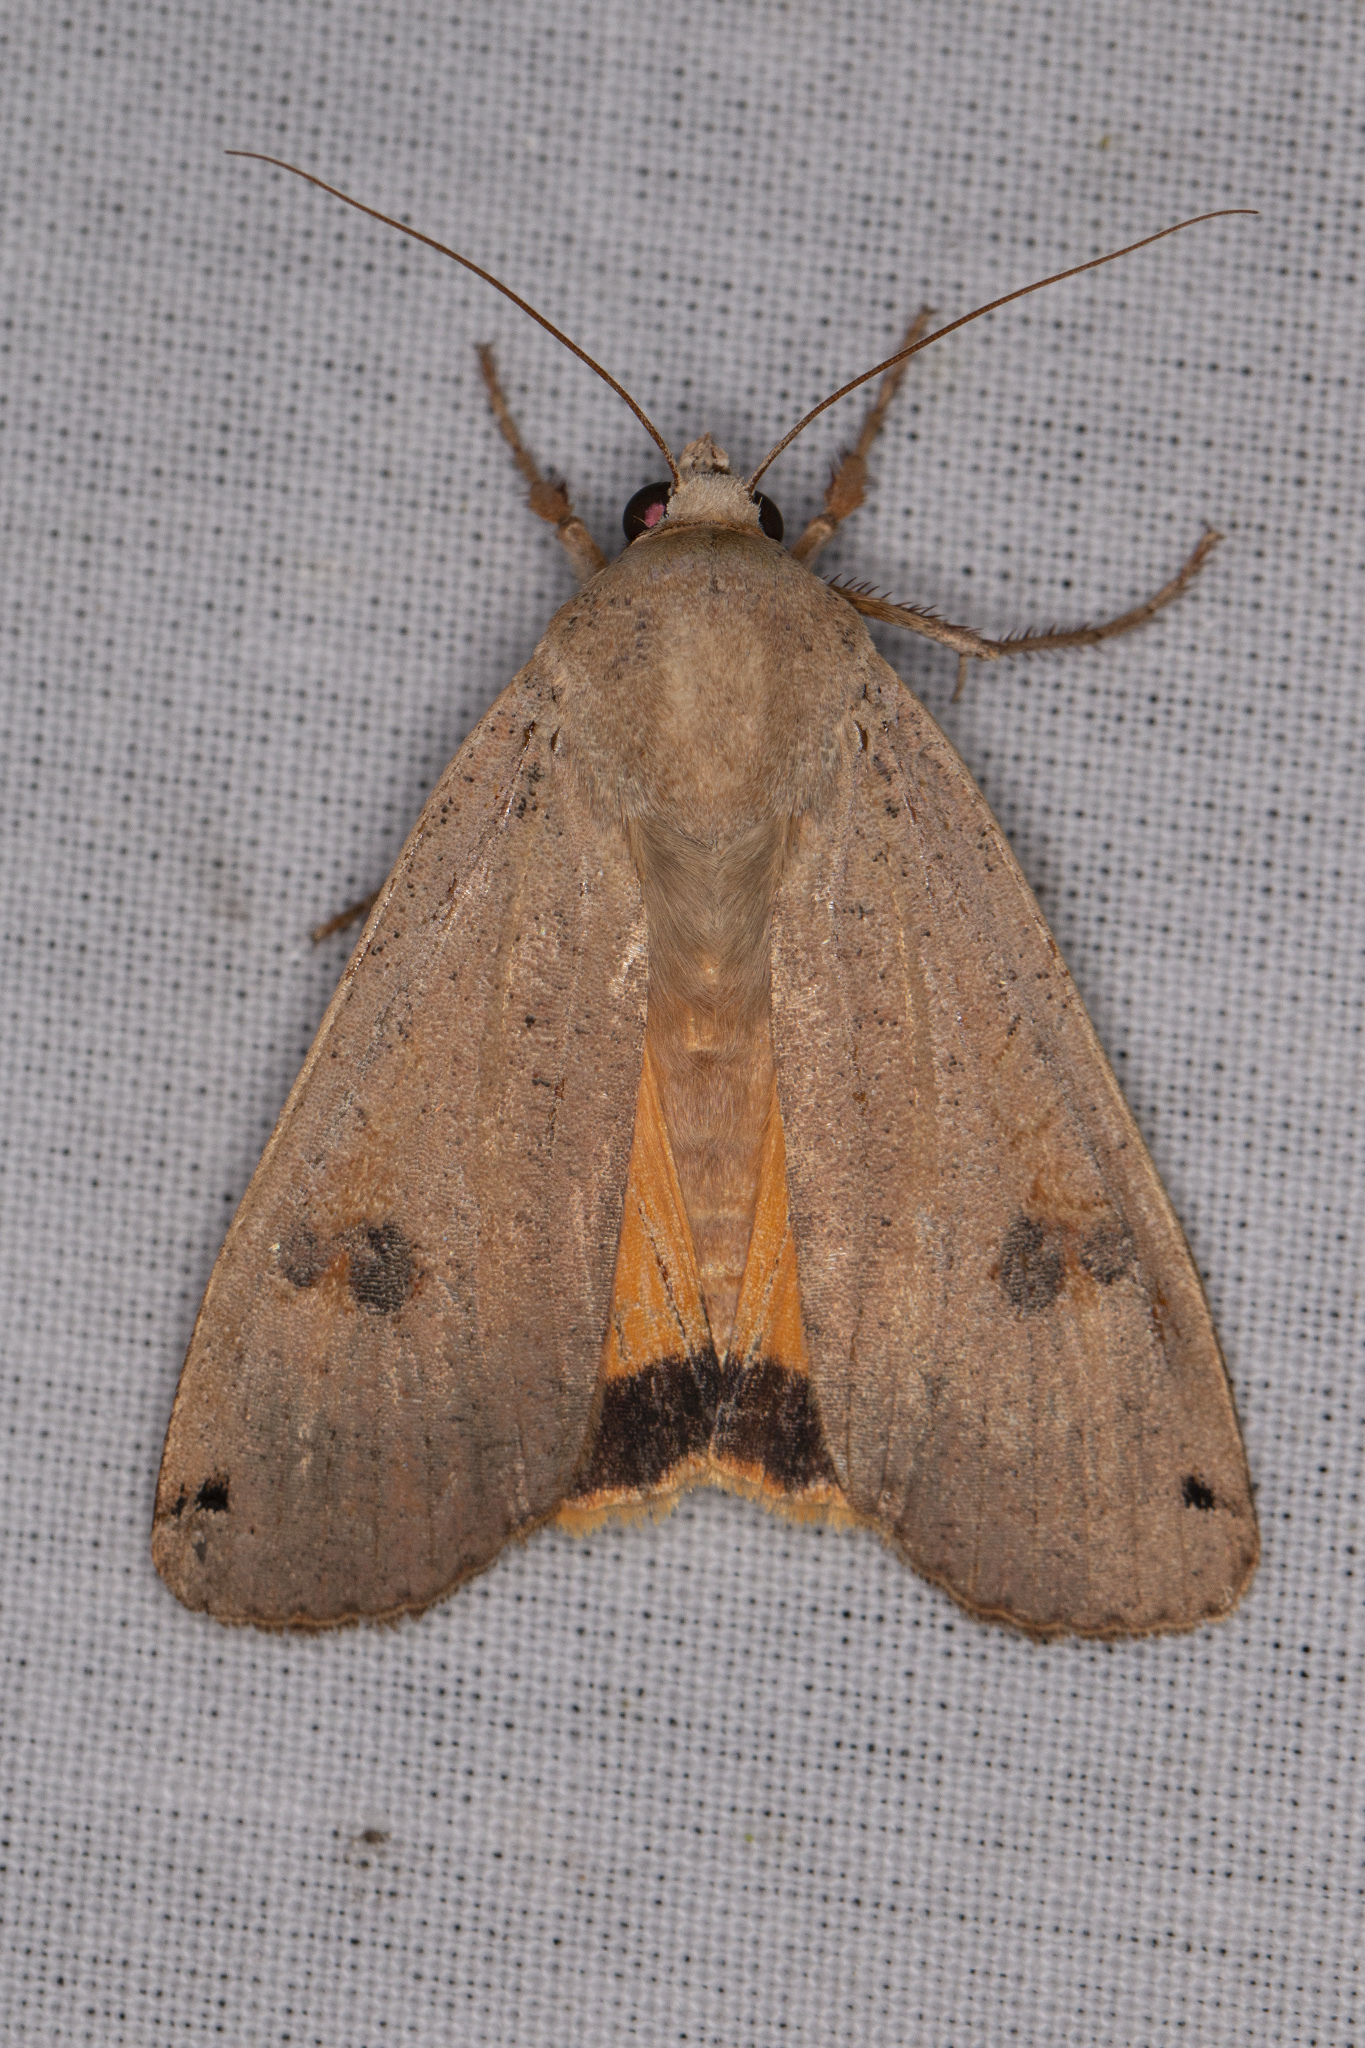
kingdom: Animalia
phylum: Arthropoda
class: Insecta
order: Lepidoptera
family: Noctuidae
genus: Noctua
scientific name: Noctua pronuba
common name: Large yellow underwing
